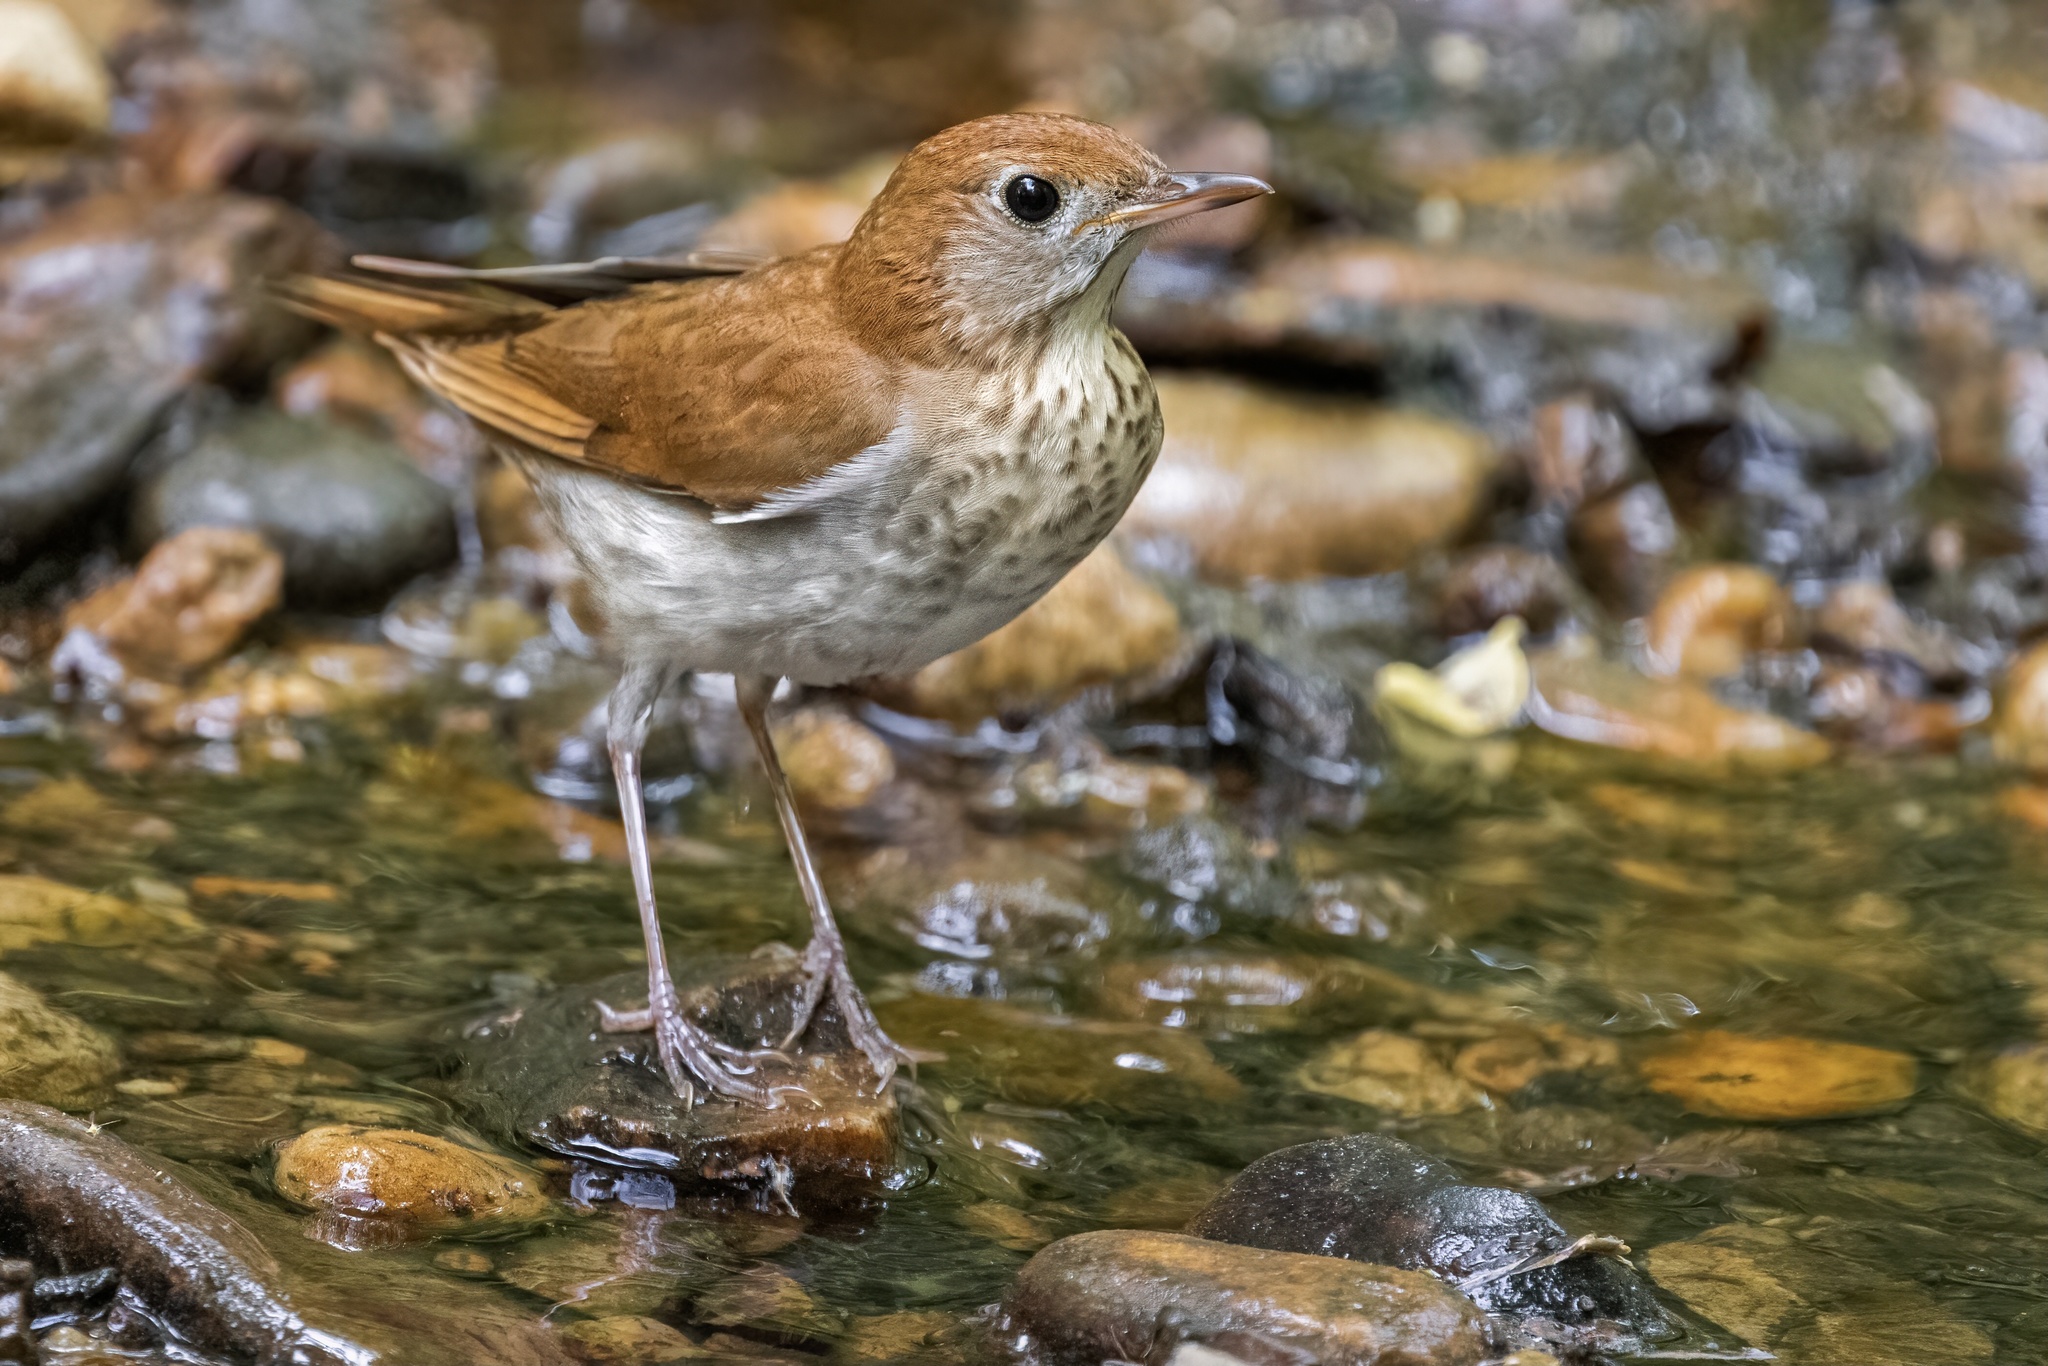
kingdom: Animalia
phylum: Chordata
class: Aves
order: Passeriformes
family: Turdidae
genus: Catharus
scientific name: Catharus fuscescens
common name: Veery
